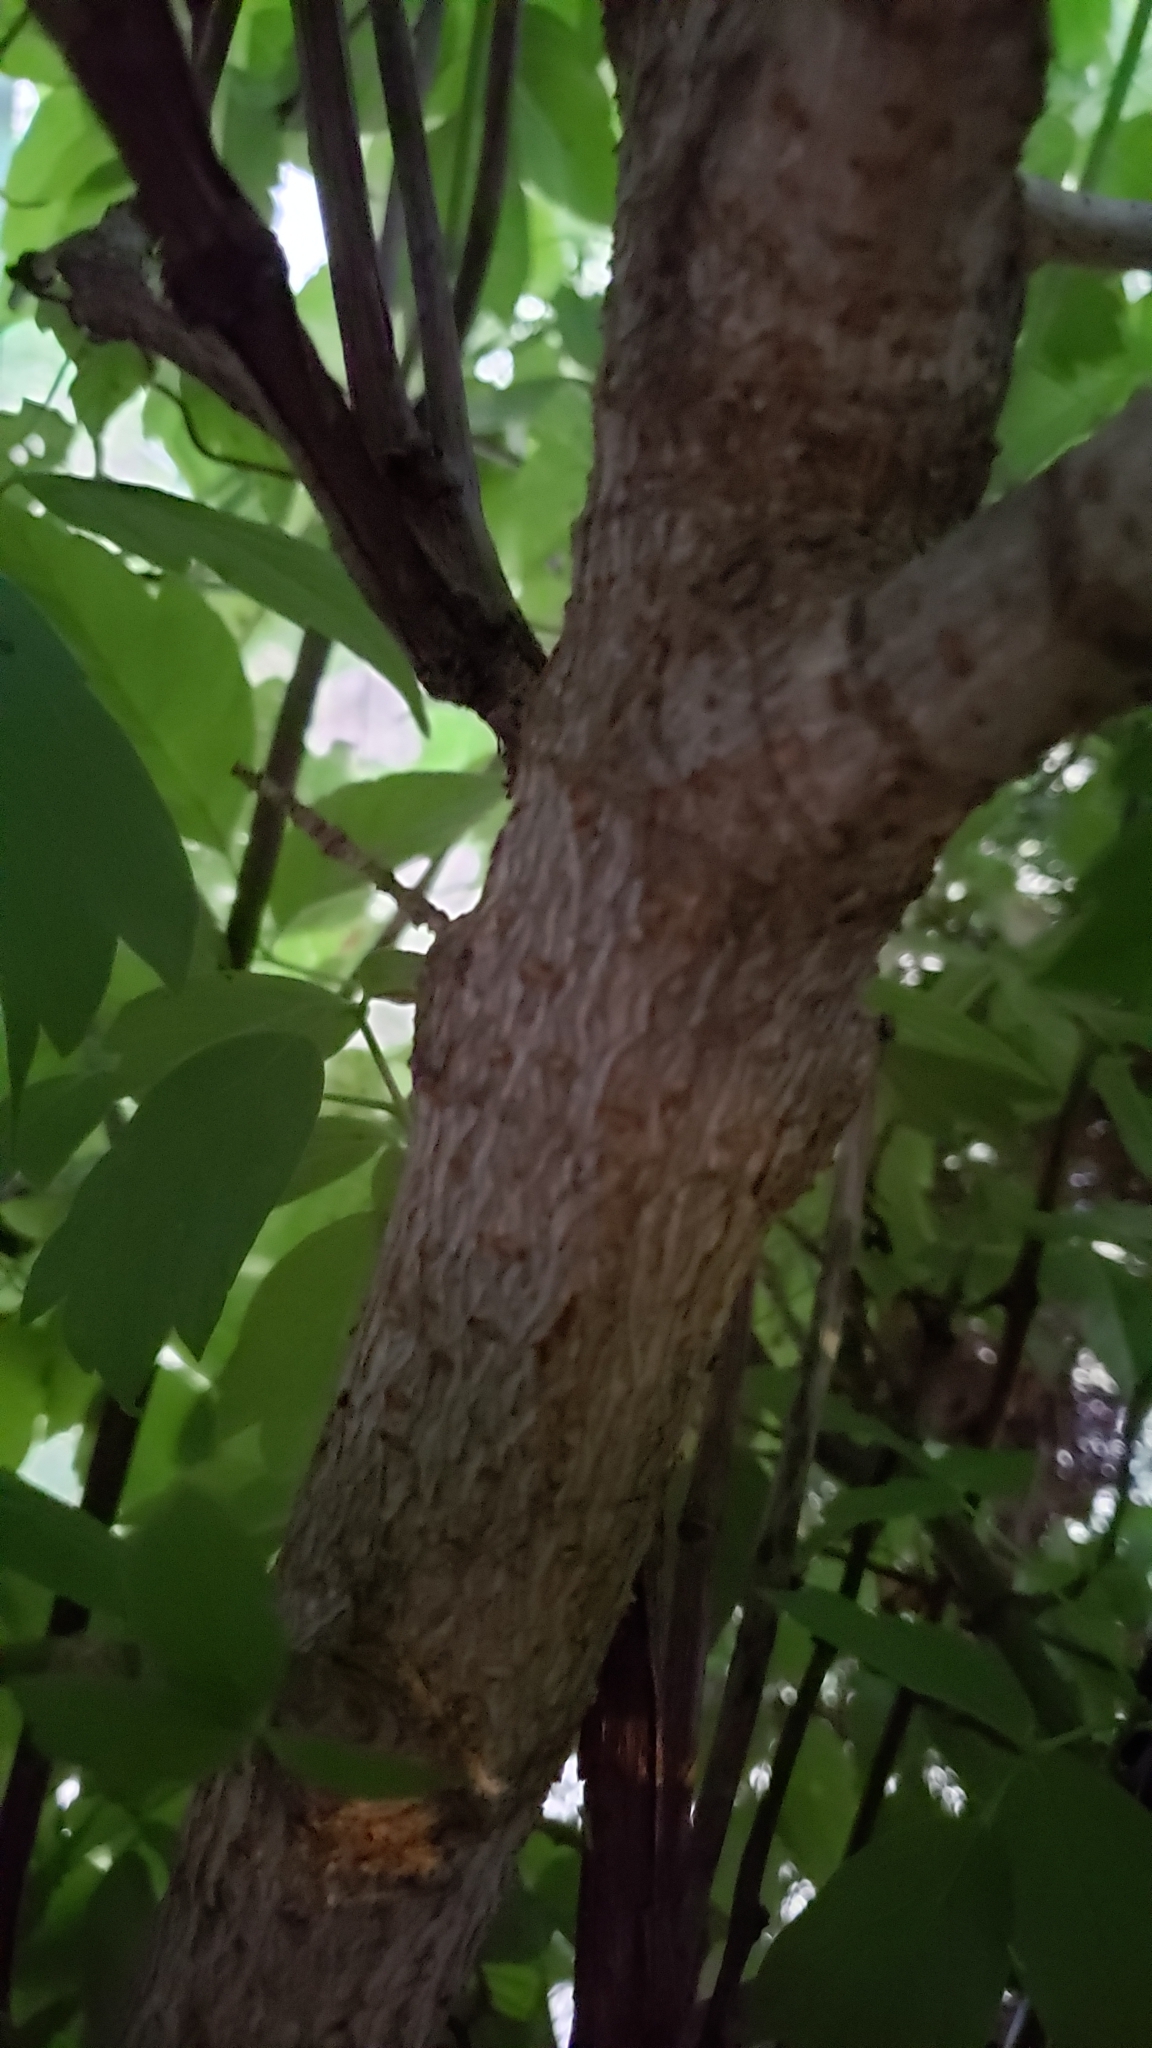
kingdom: Plantae
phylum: Tracheophyta
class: Magnoliopsida
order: Sapindales
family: Sapindaceae
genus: Acer
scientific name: Acer negundo
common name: Ashleaf maple
